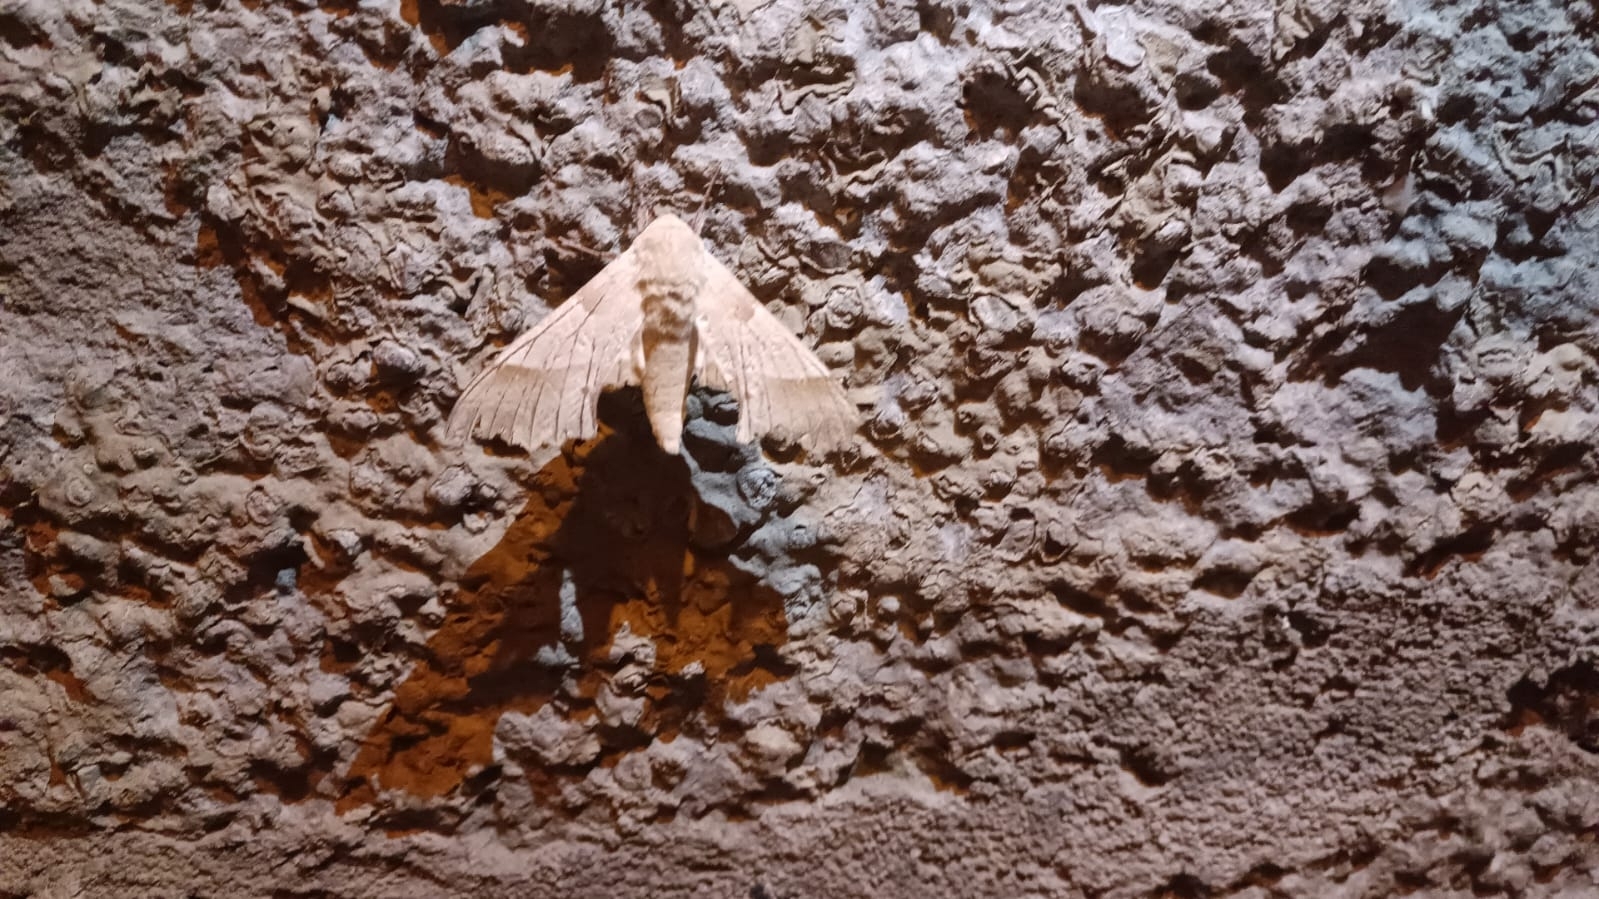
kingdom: Animalia
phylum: Arthropoda
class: Insecta
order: Lepidoptera
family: Sphingidae
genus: Marumba
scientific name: Marumba quercus
